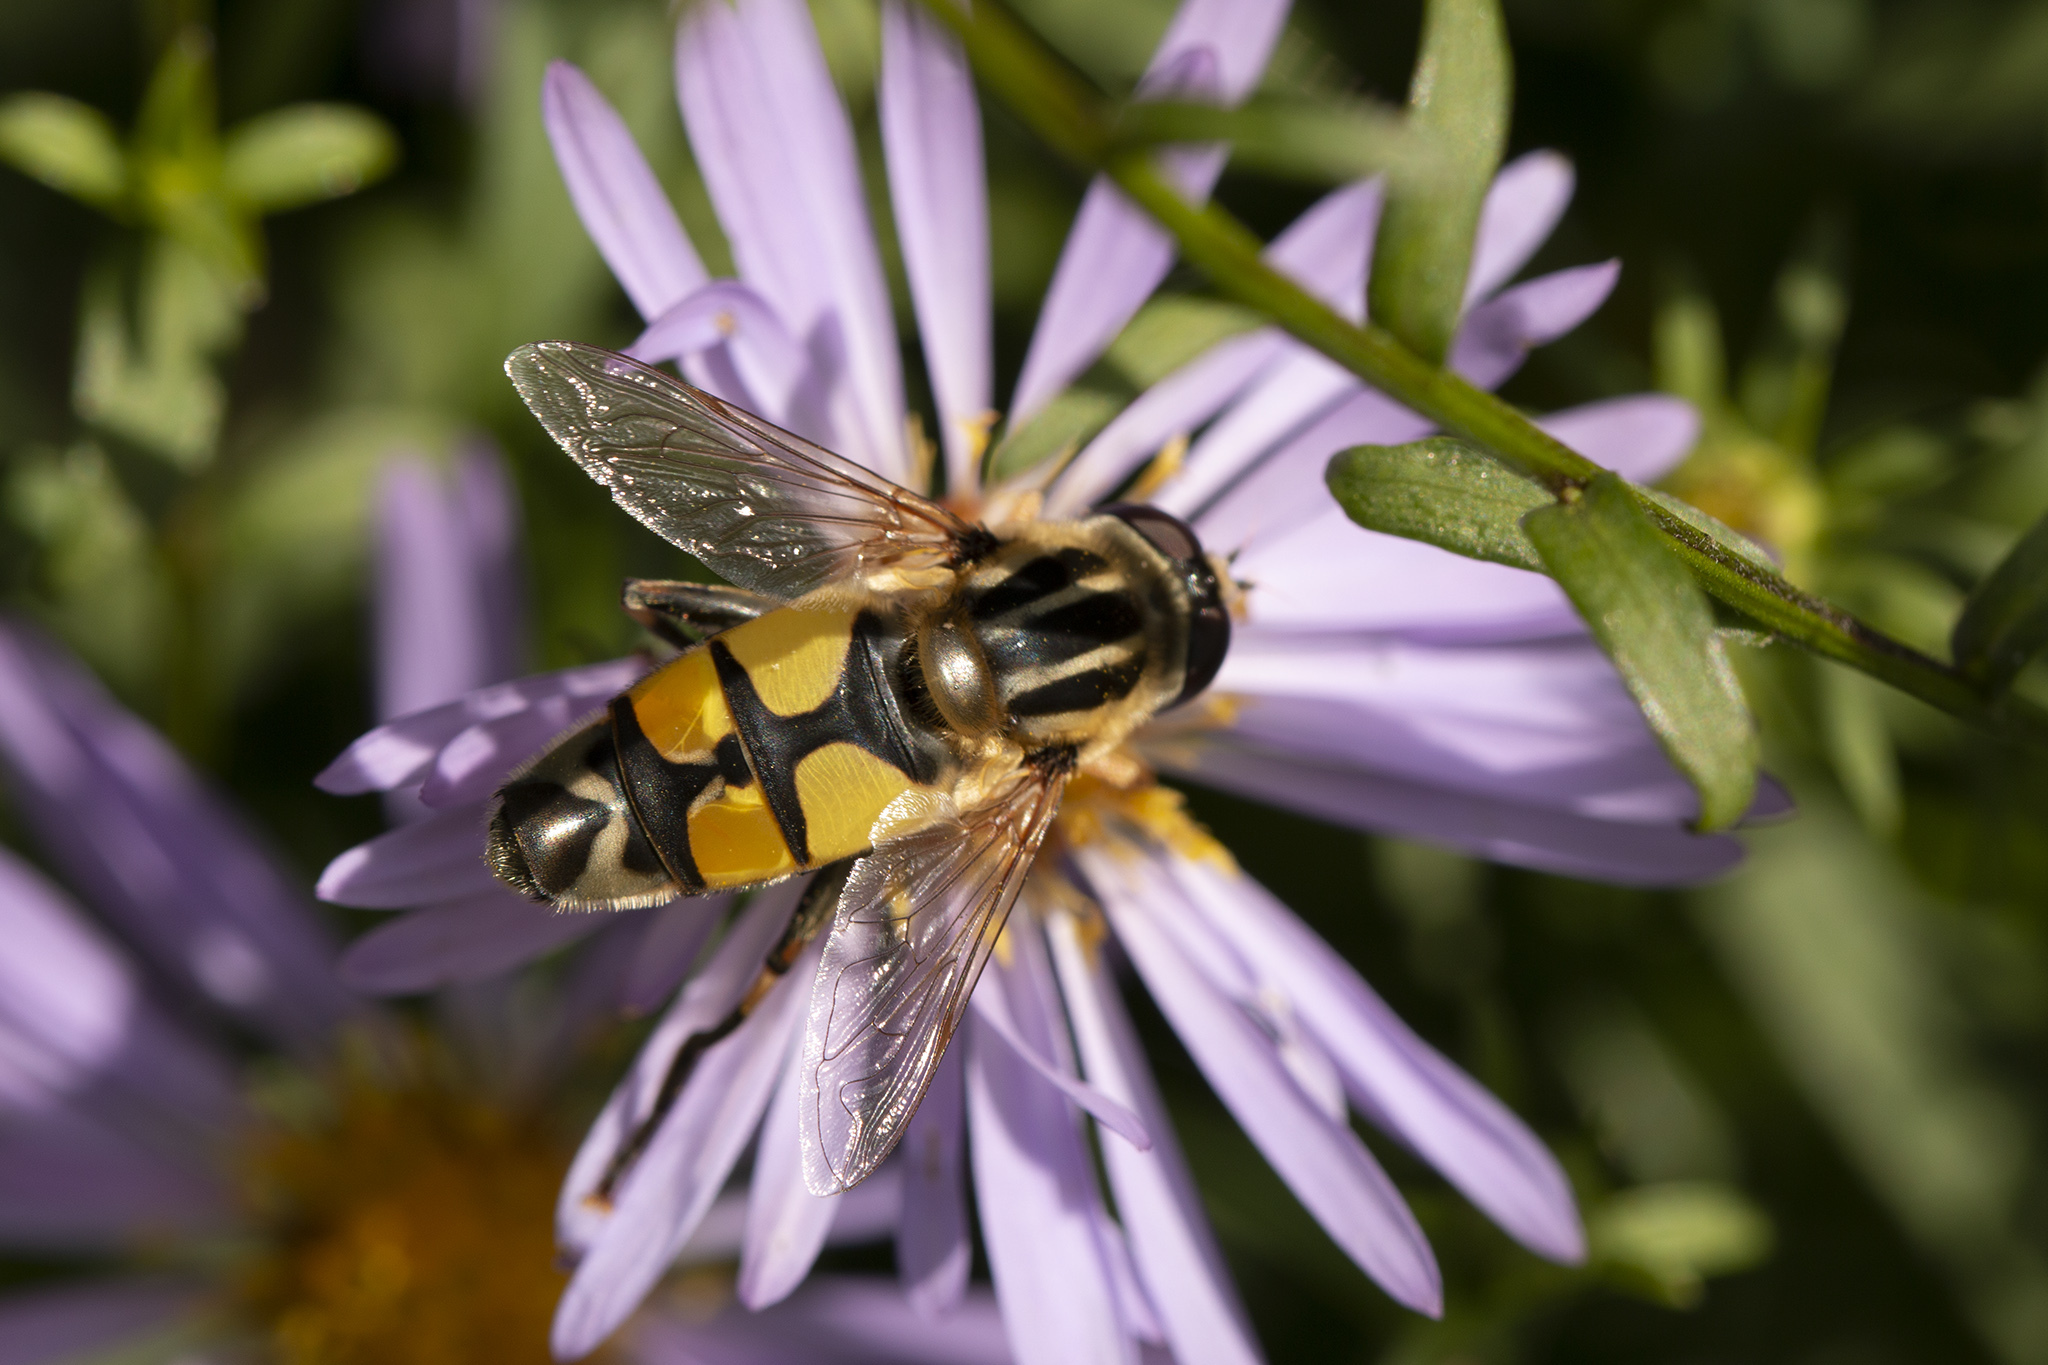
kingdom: Animalia
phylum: Arthropoda
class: Insecta
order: Diptera
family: Syrphidae
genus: Helophilus
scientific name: Helophilus trivittatus
